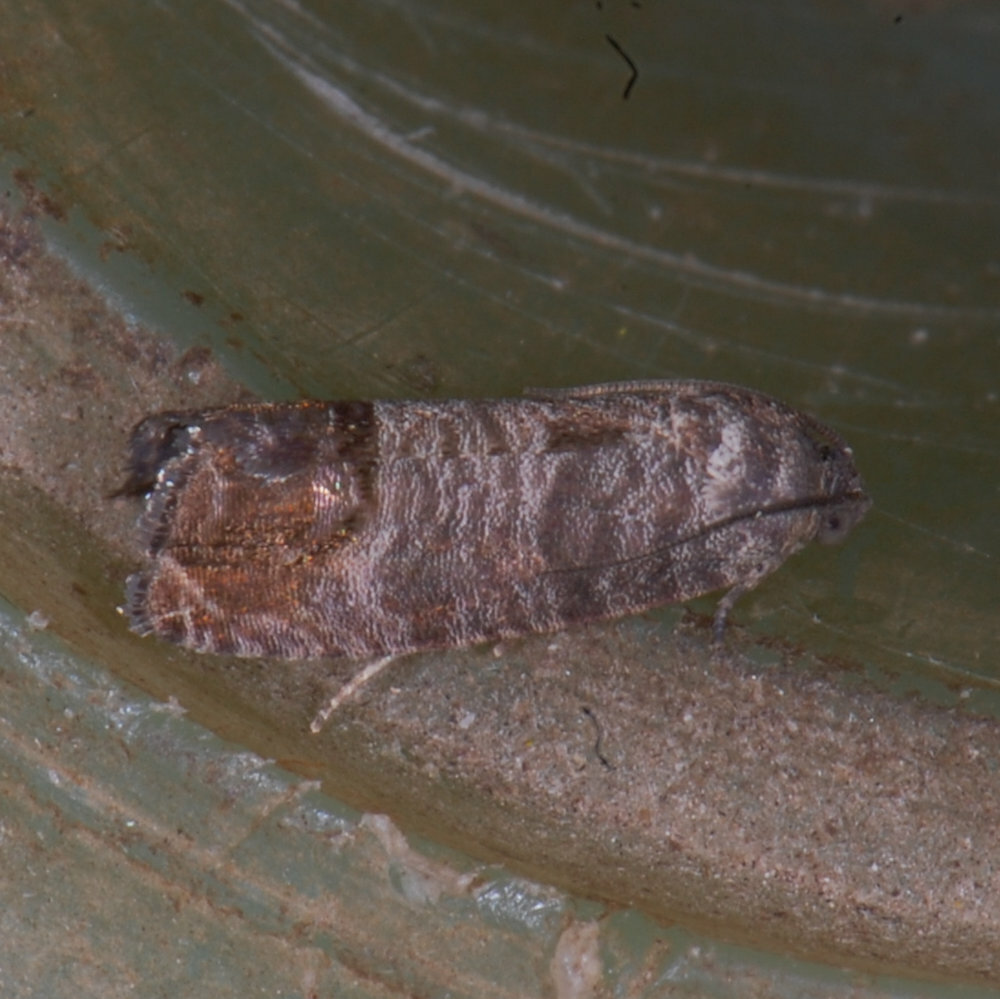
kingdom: Animalia
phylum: Arthropoda
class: Insecta
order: Lepidoptera
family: Tortricidae
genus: Cydia
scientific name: Cydia pomonella
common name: Codling moth
